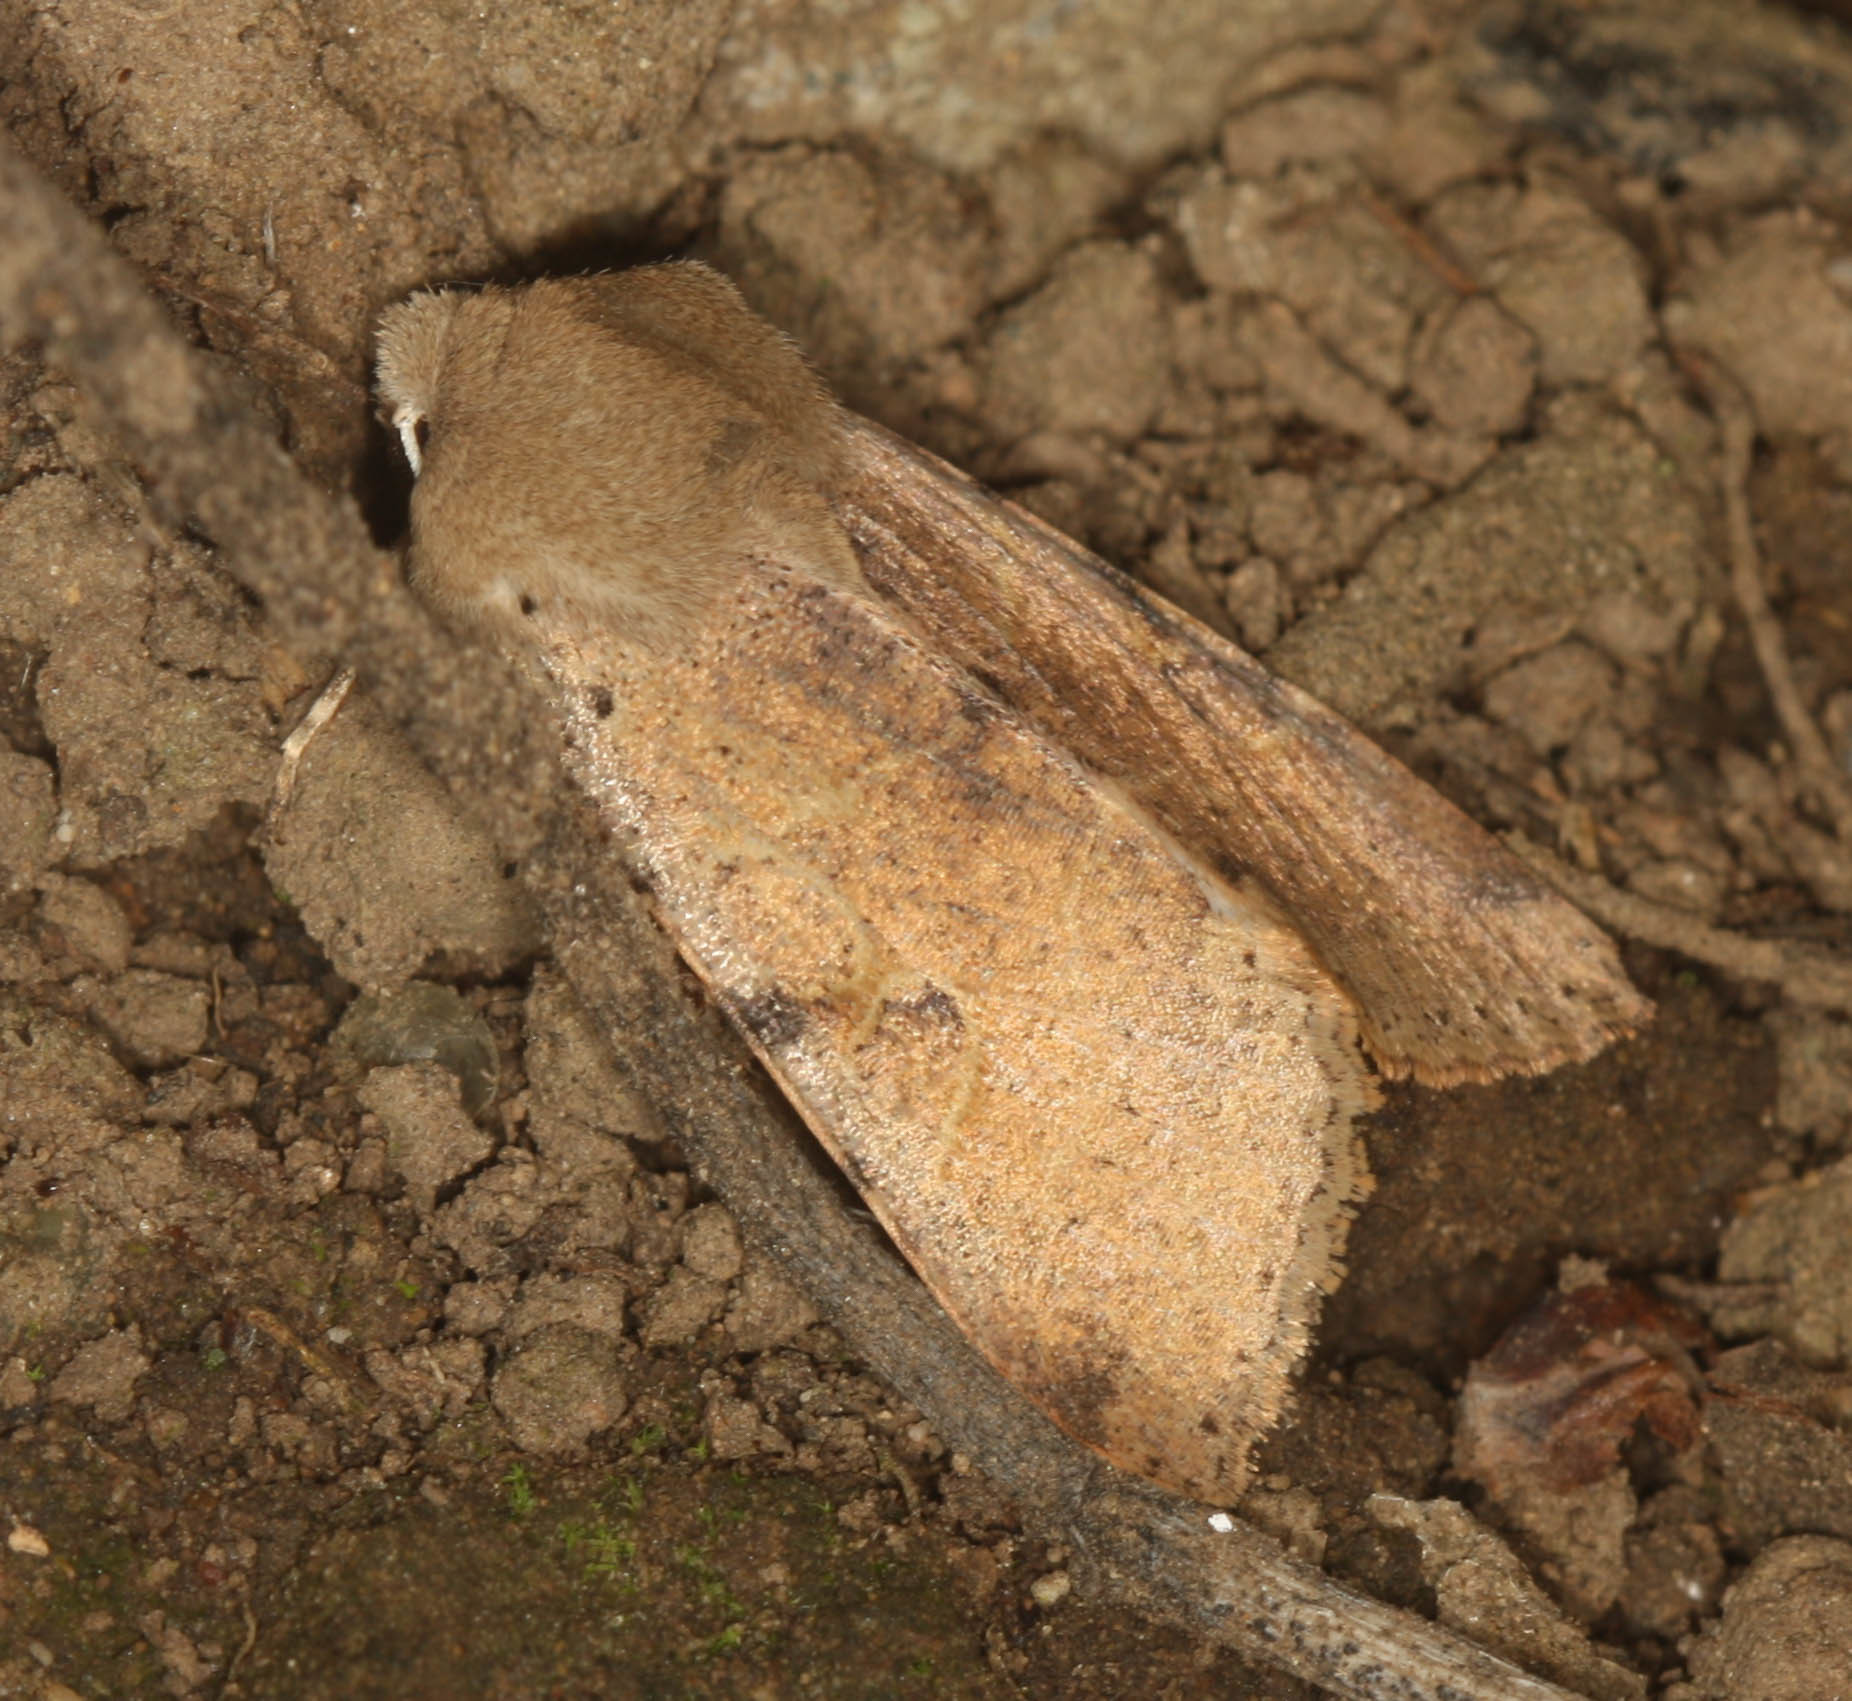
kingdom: Animalia
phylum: Arthropoda
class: Insecta
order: Lepidoptera
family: Noctuidae
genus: Orthosia
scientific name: Orthosia behrensiana
